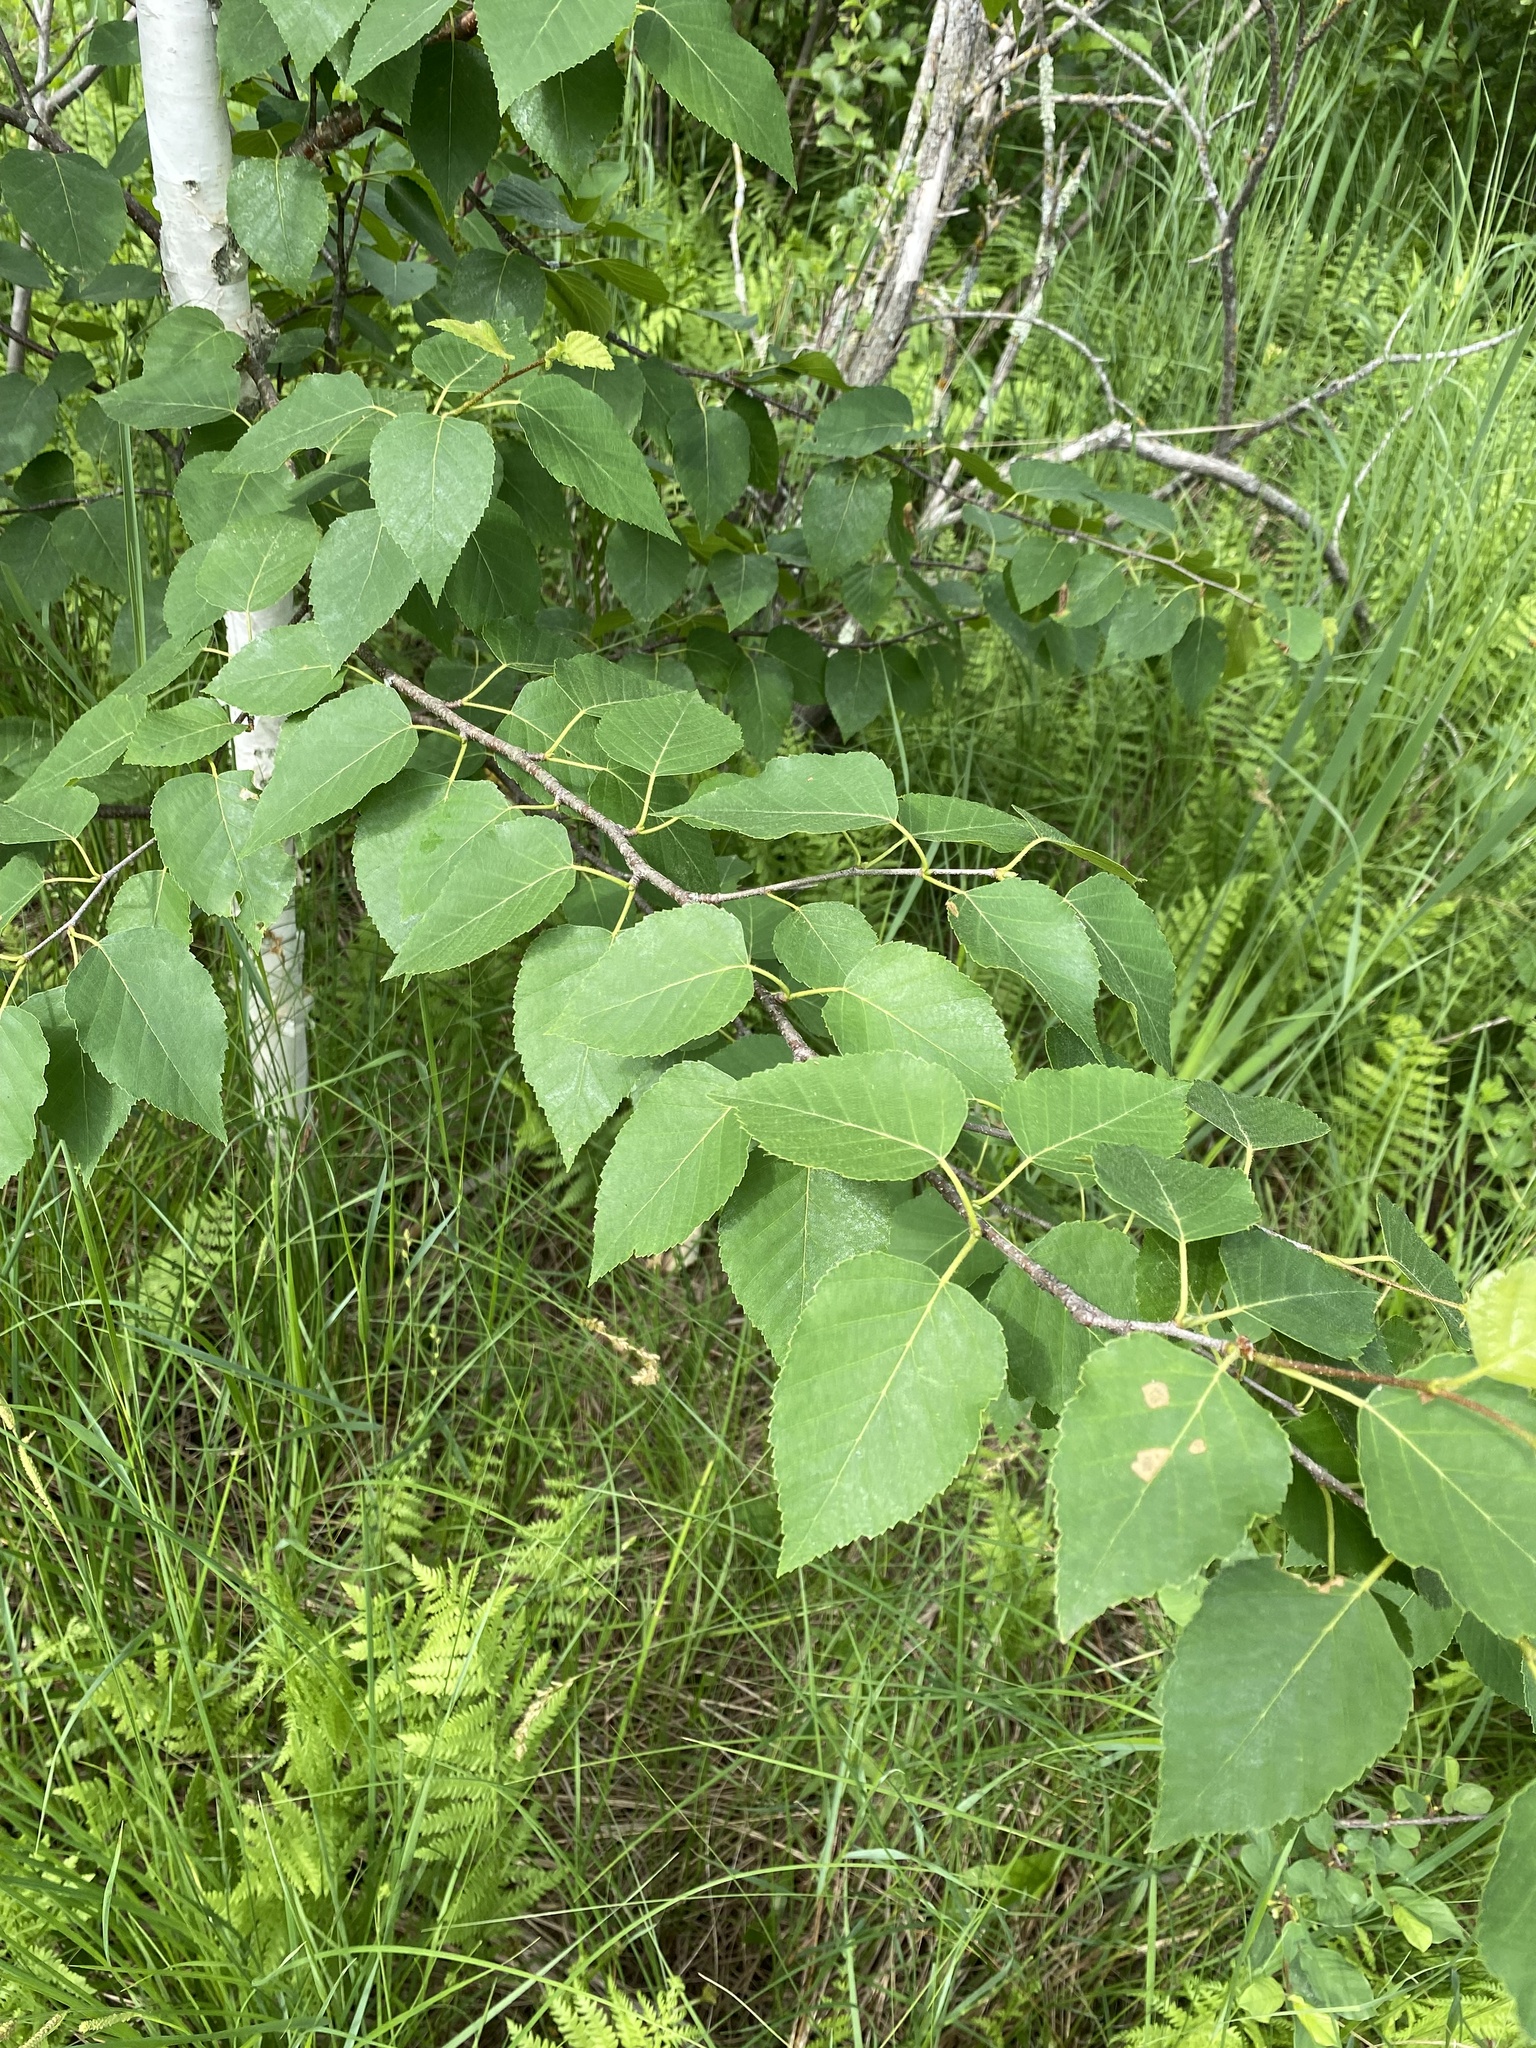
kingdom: Plantae
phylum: Tracheophyta
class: Magnoliopsida
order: Fagales
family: Betulaceae
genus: Betula
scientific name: Betula papyrifera
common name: Paper birch
